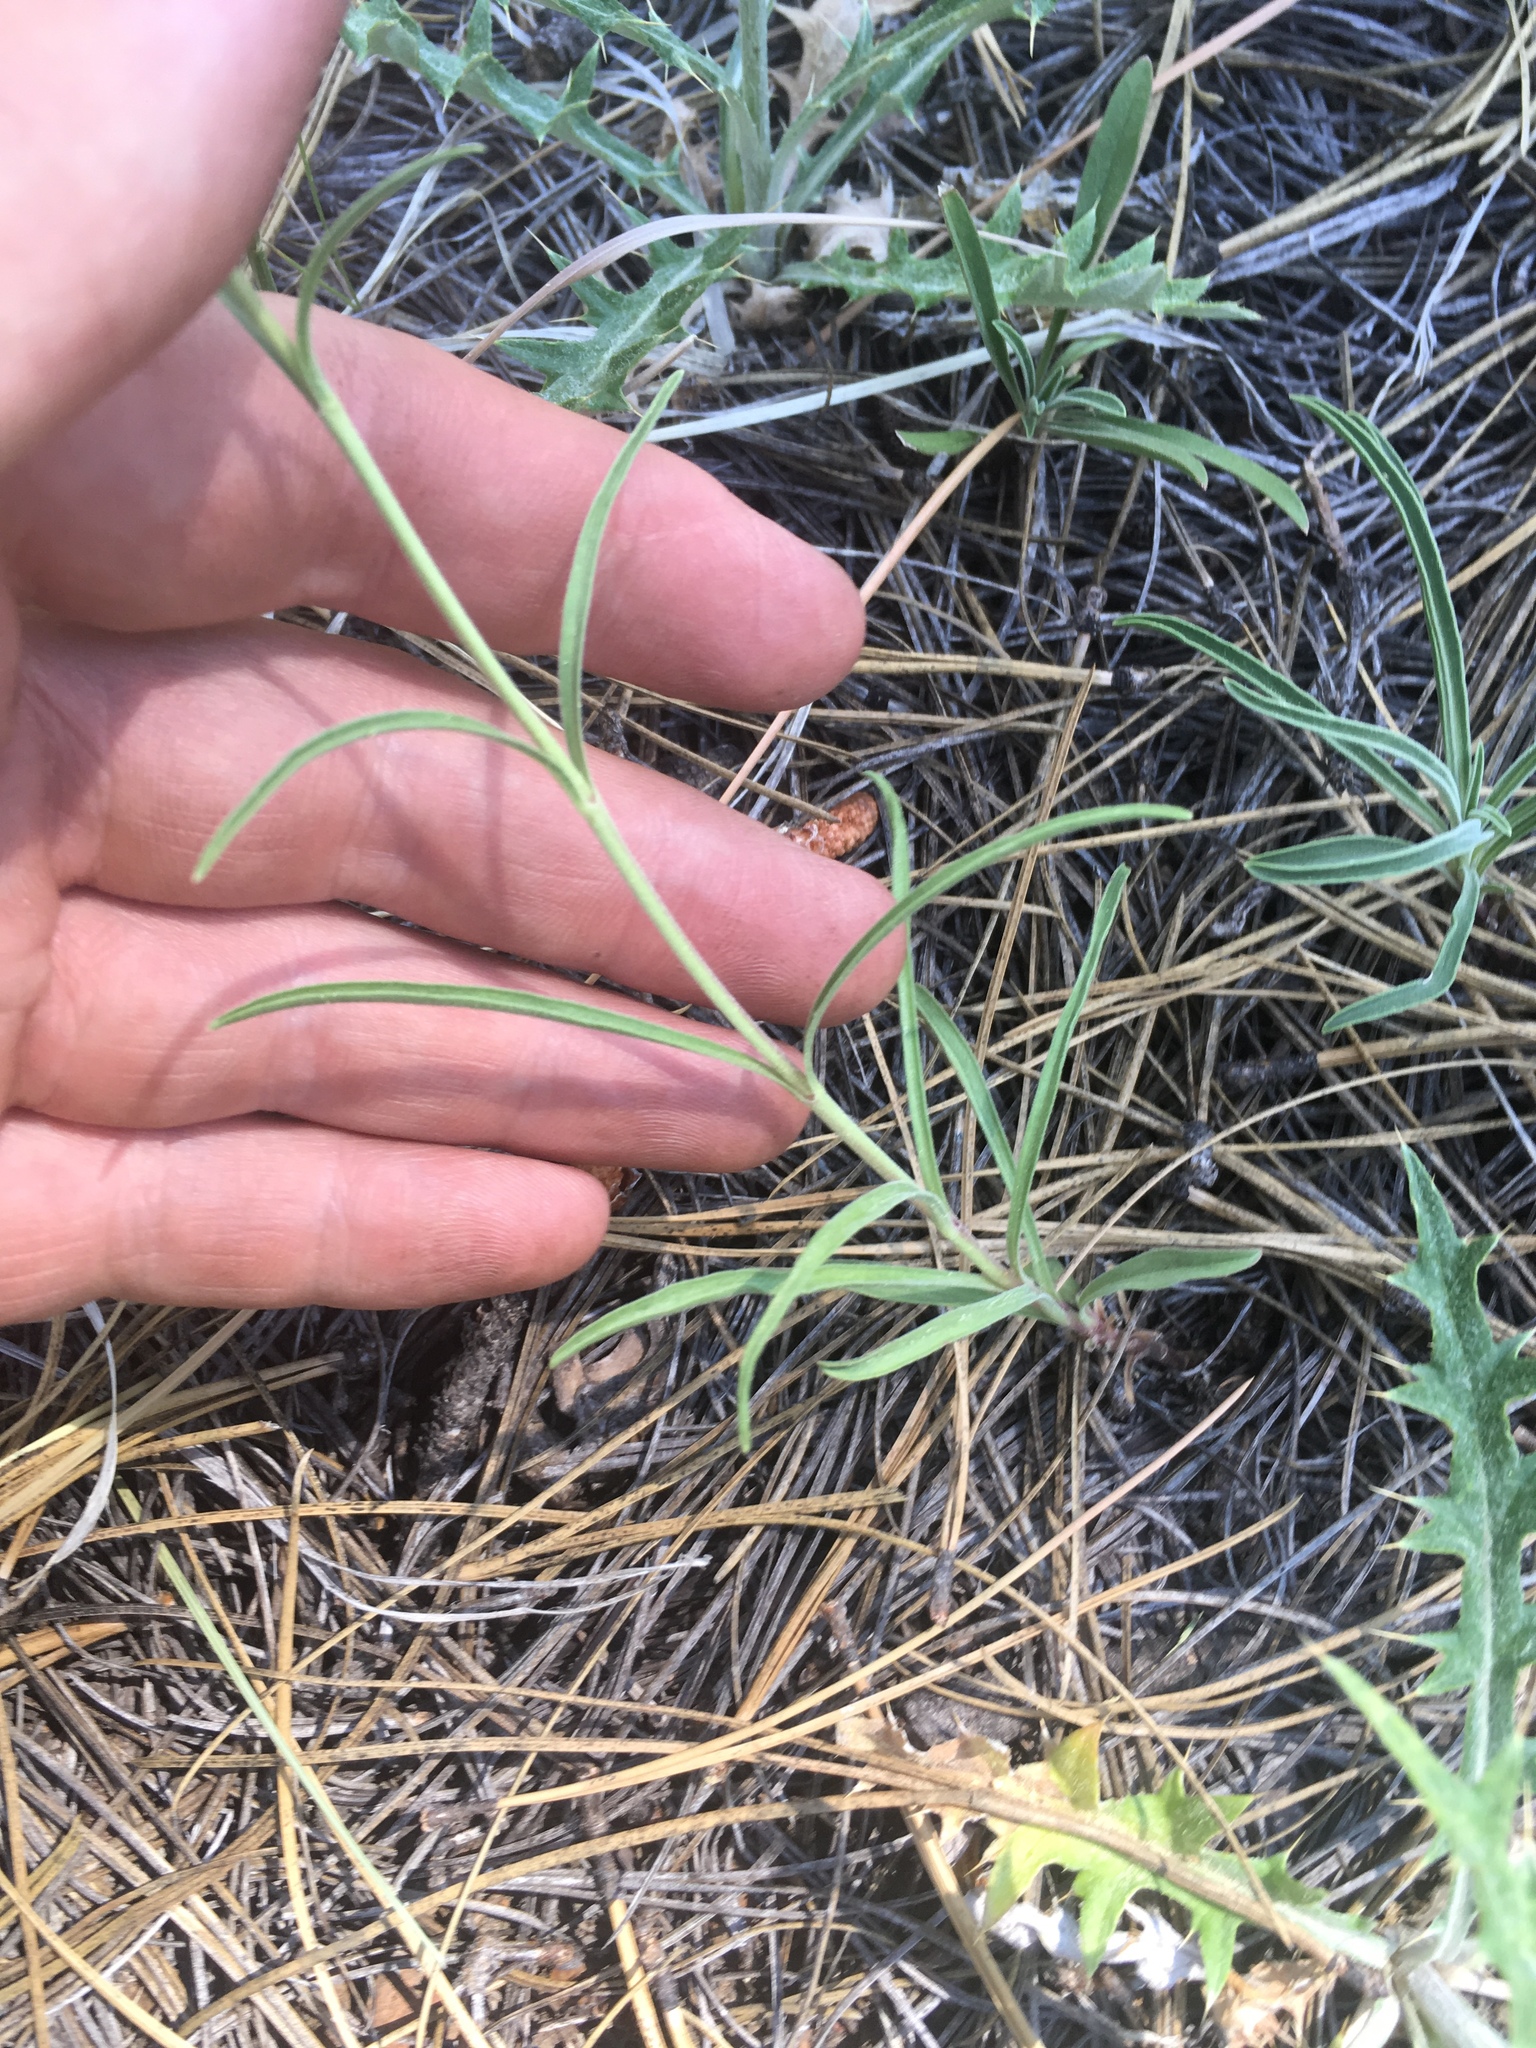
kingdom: Plantae
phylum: Tracheophyta
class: Magnoliopsida
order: Lamiales
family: Plantaginaceae
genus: Penstemon
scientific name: Penstemon virgatus
